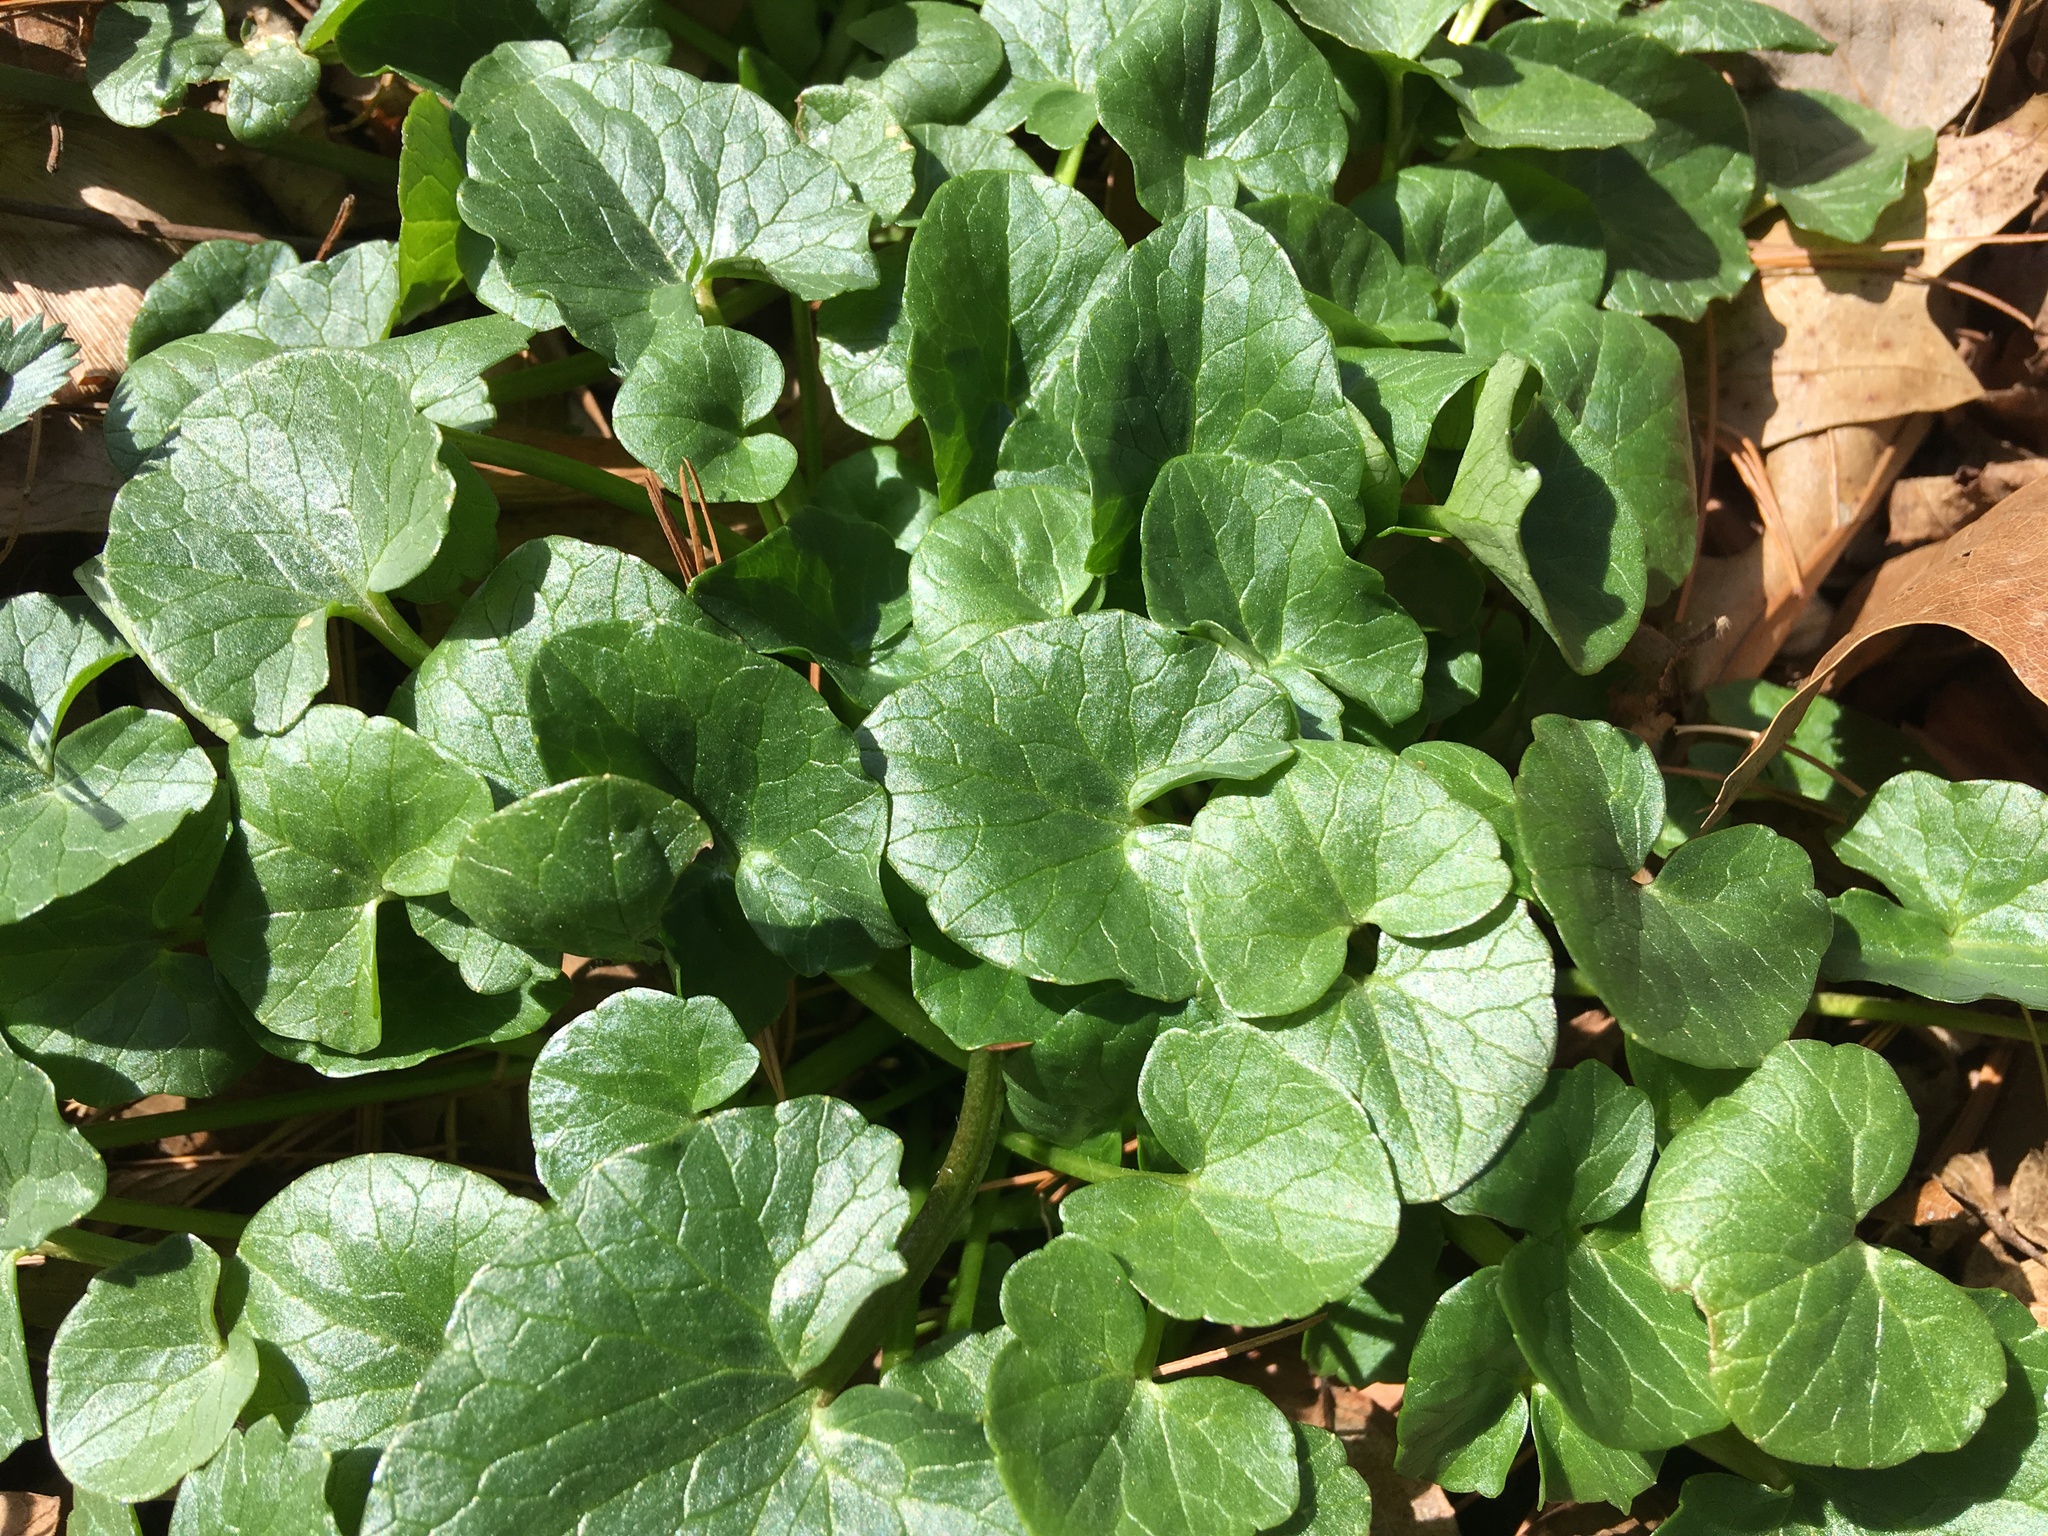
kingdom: Plantae
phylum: Tracheophyta
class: Magnoliopsida
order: Ranunculales
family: Ranunculaceae
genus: Ficaria
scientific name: Ficaria verna
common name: Lesser celandine
